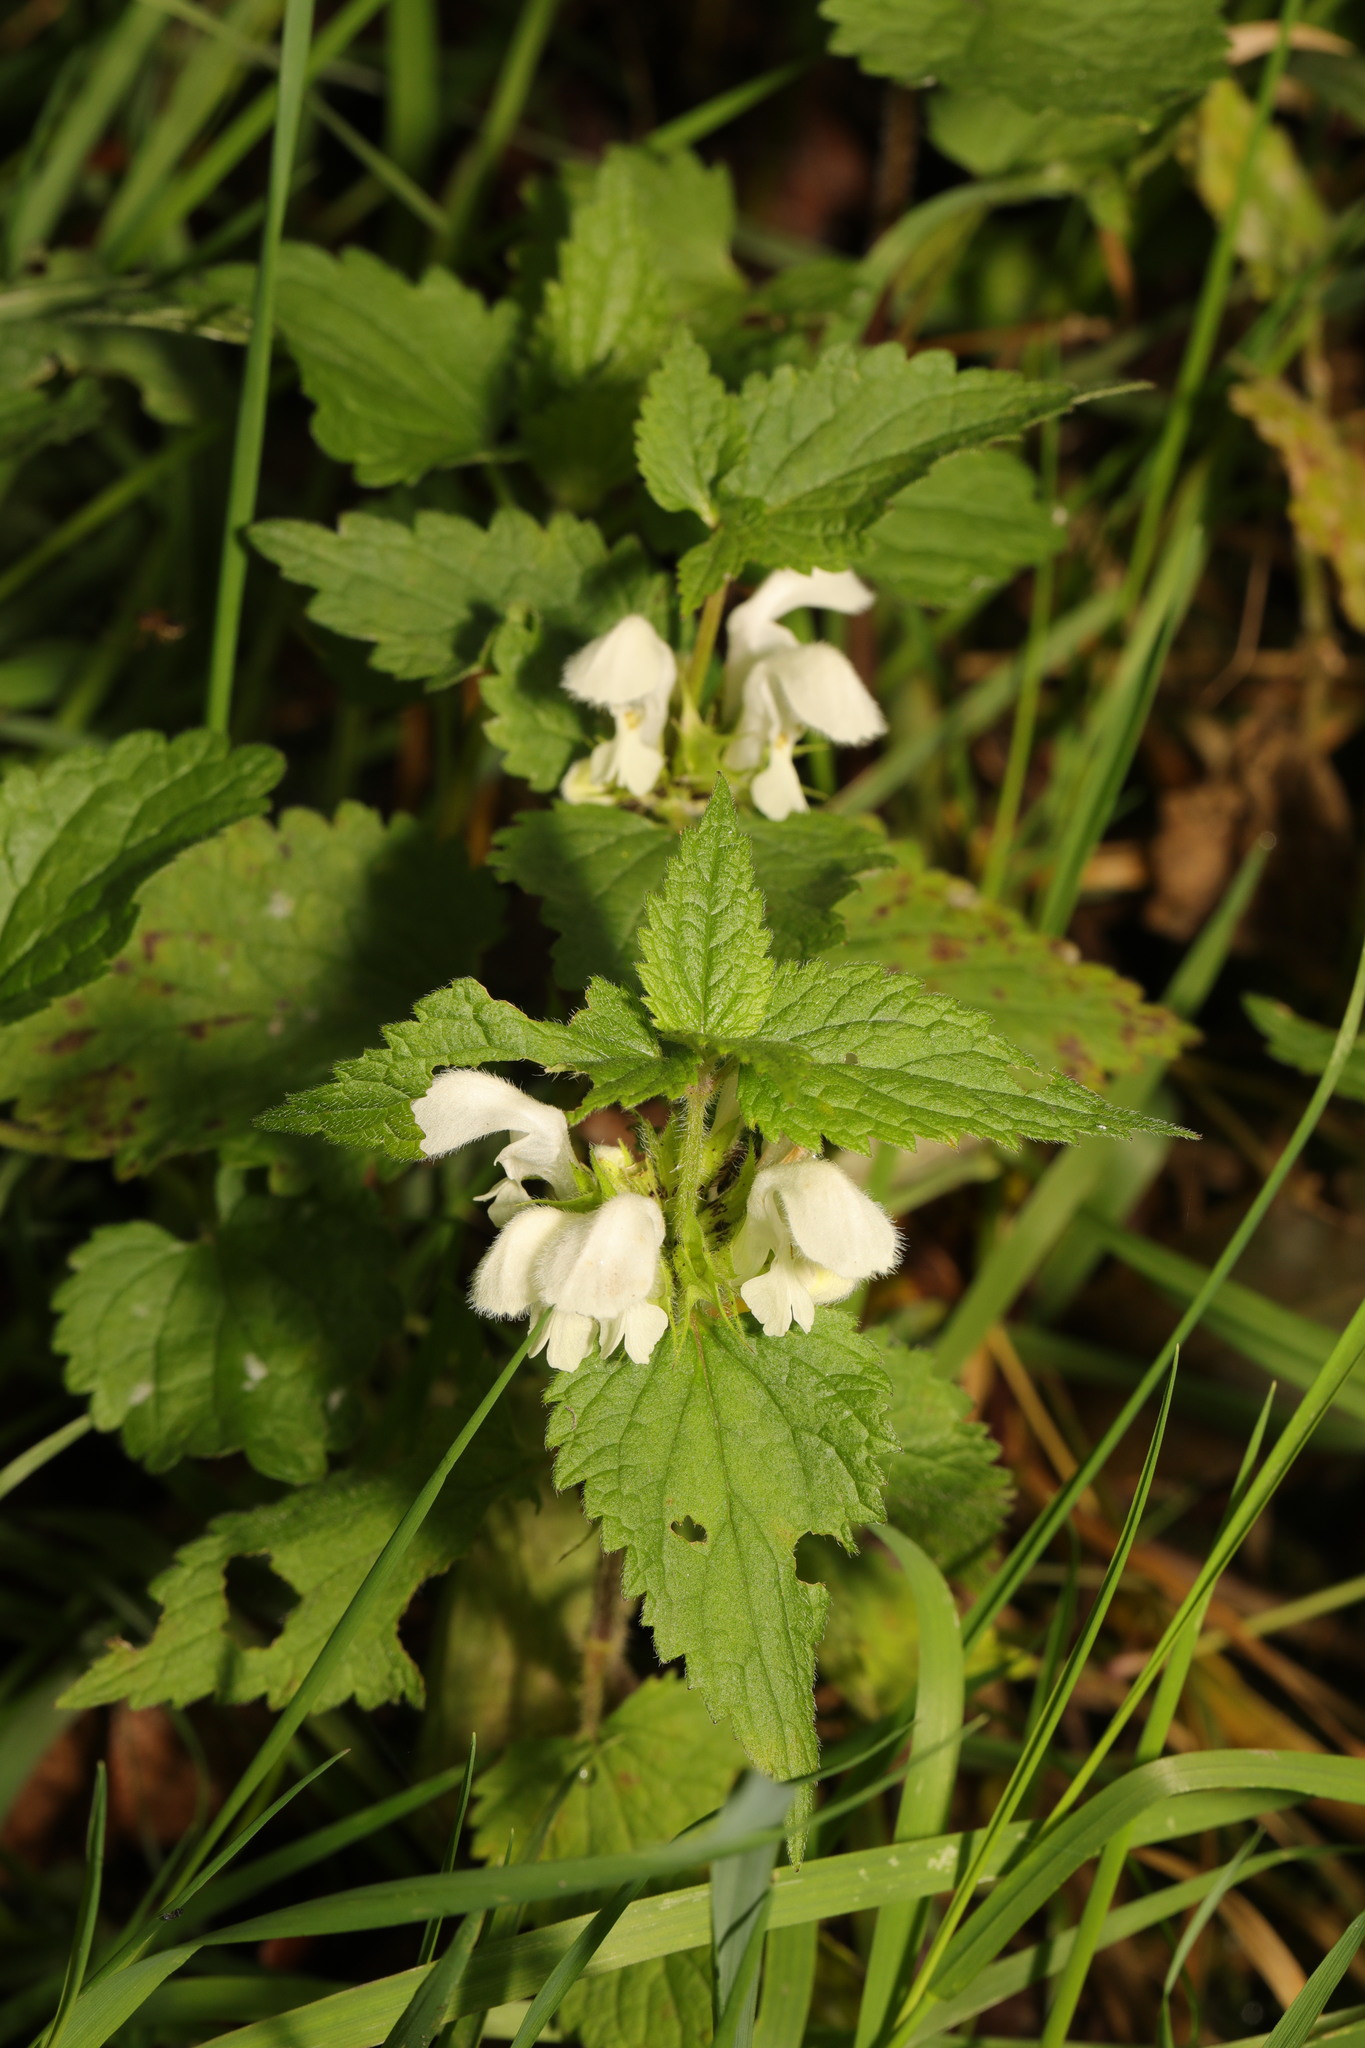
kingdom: Plantae
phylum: Tracheophyta
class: Magnoliopsida
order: Lamiales
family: Lamiaceae
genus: Lamium
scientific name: Lamium album
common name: White dead-nettle
